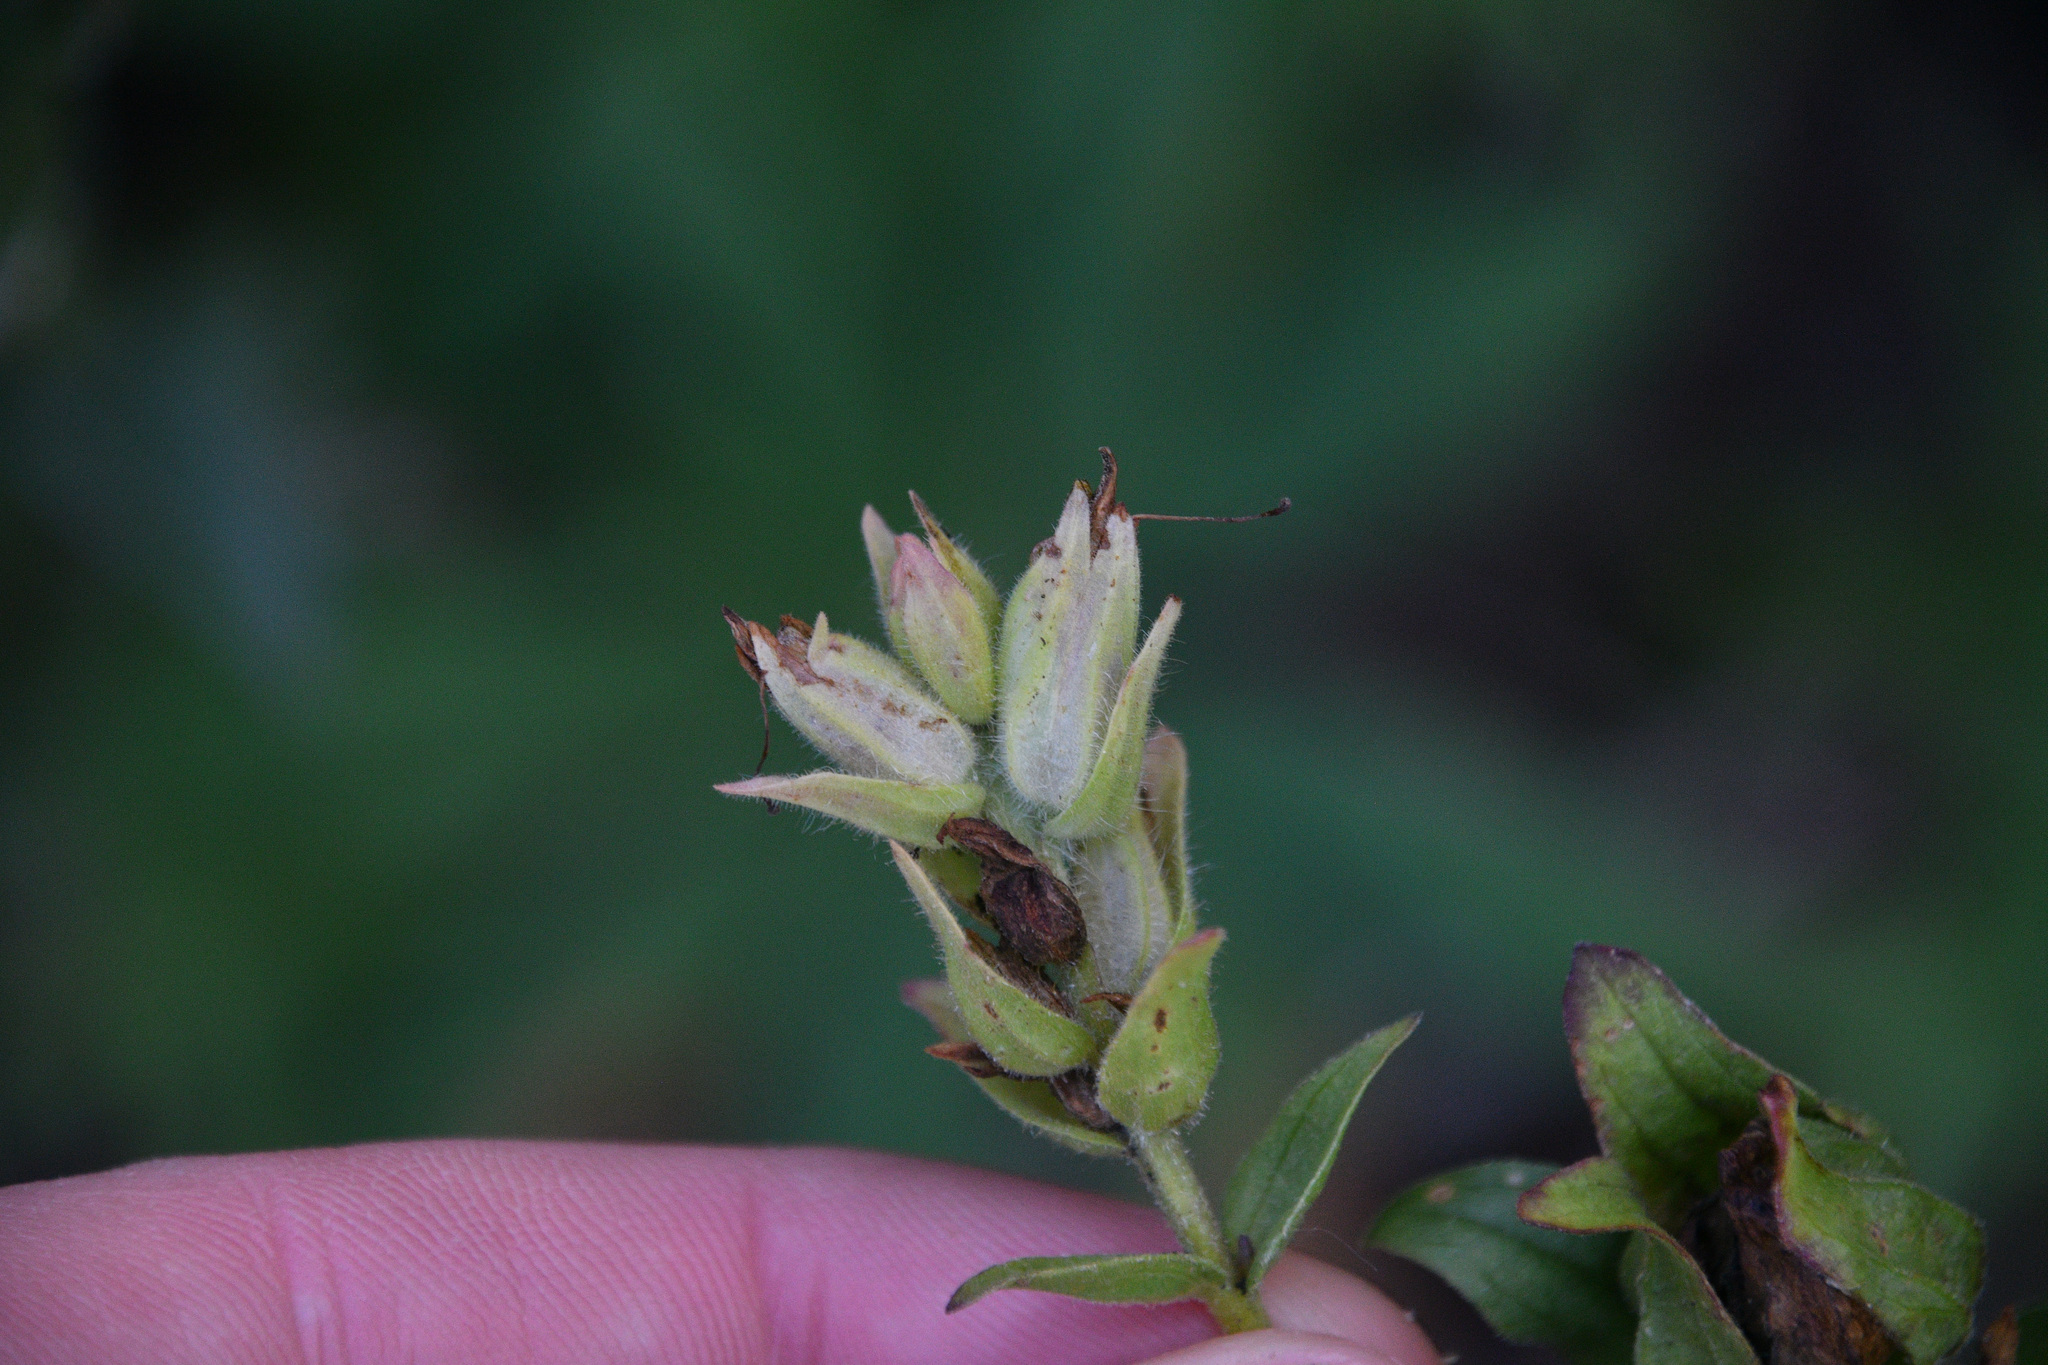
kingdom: Plantae
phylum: Tracheophyta
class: Magnoliopsida
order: Lamiales
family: Orobanchaceae
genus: Castilleja
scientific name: Castilleja unalaschcensis
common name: Unalaska paintbrush
